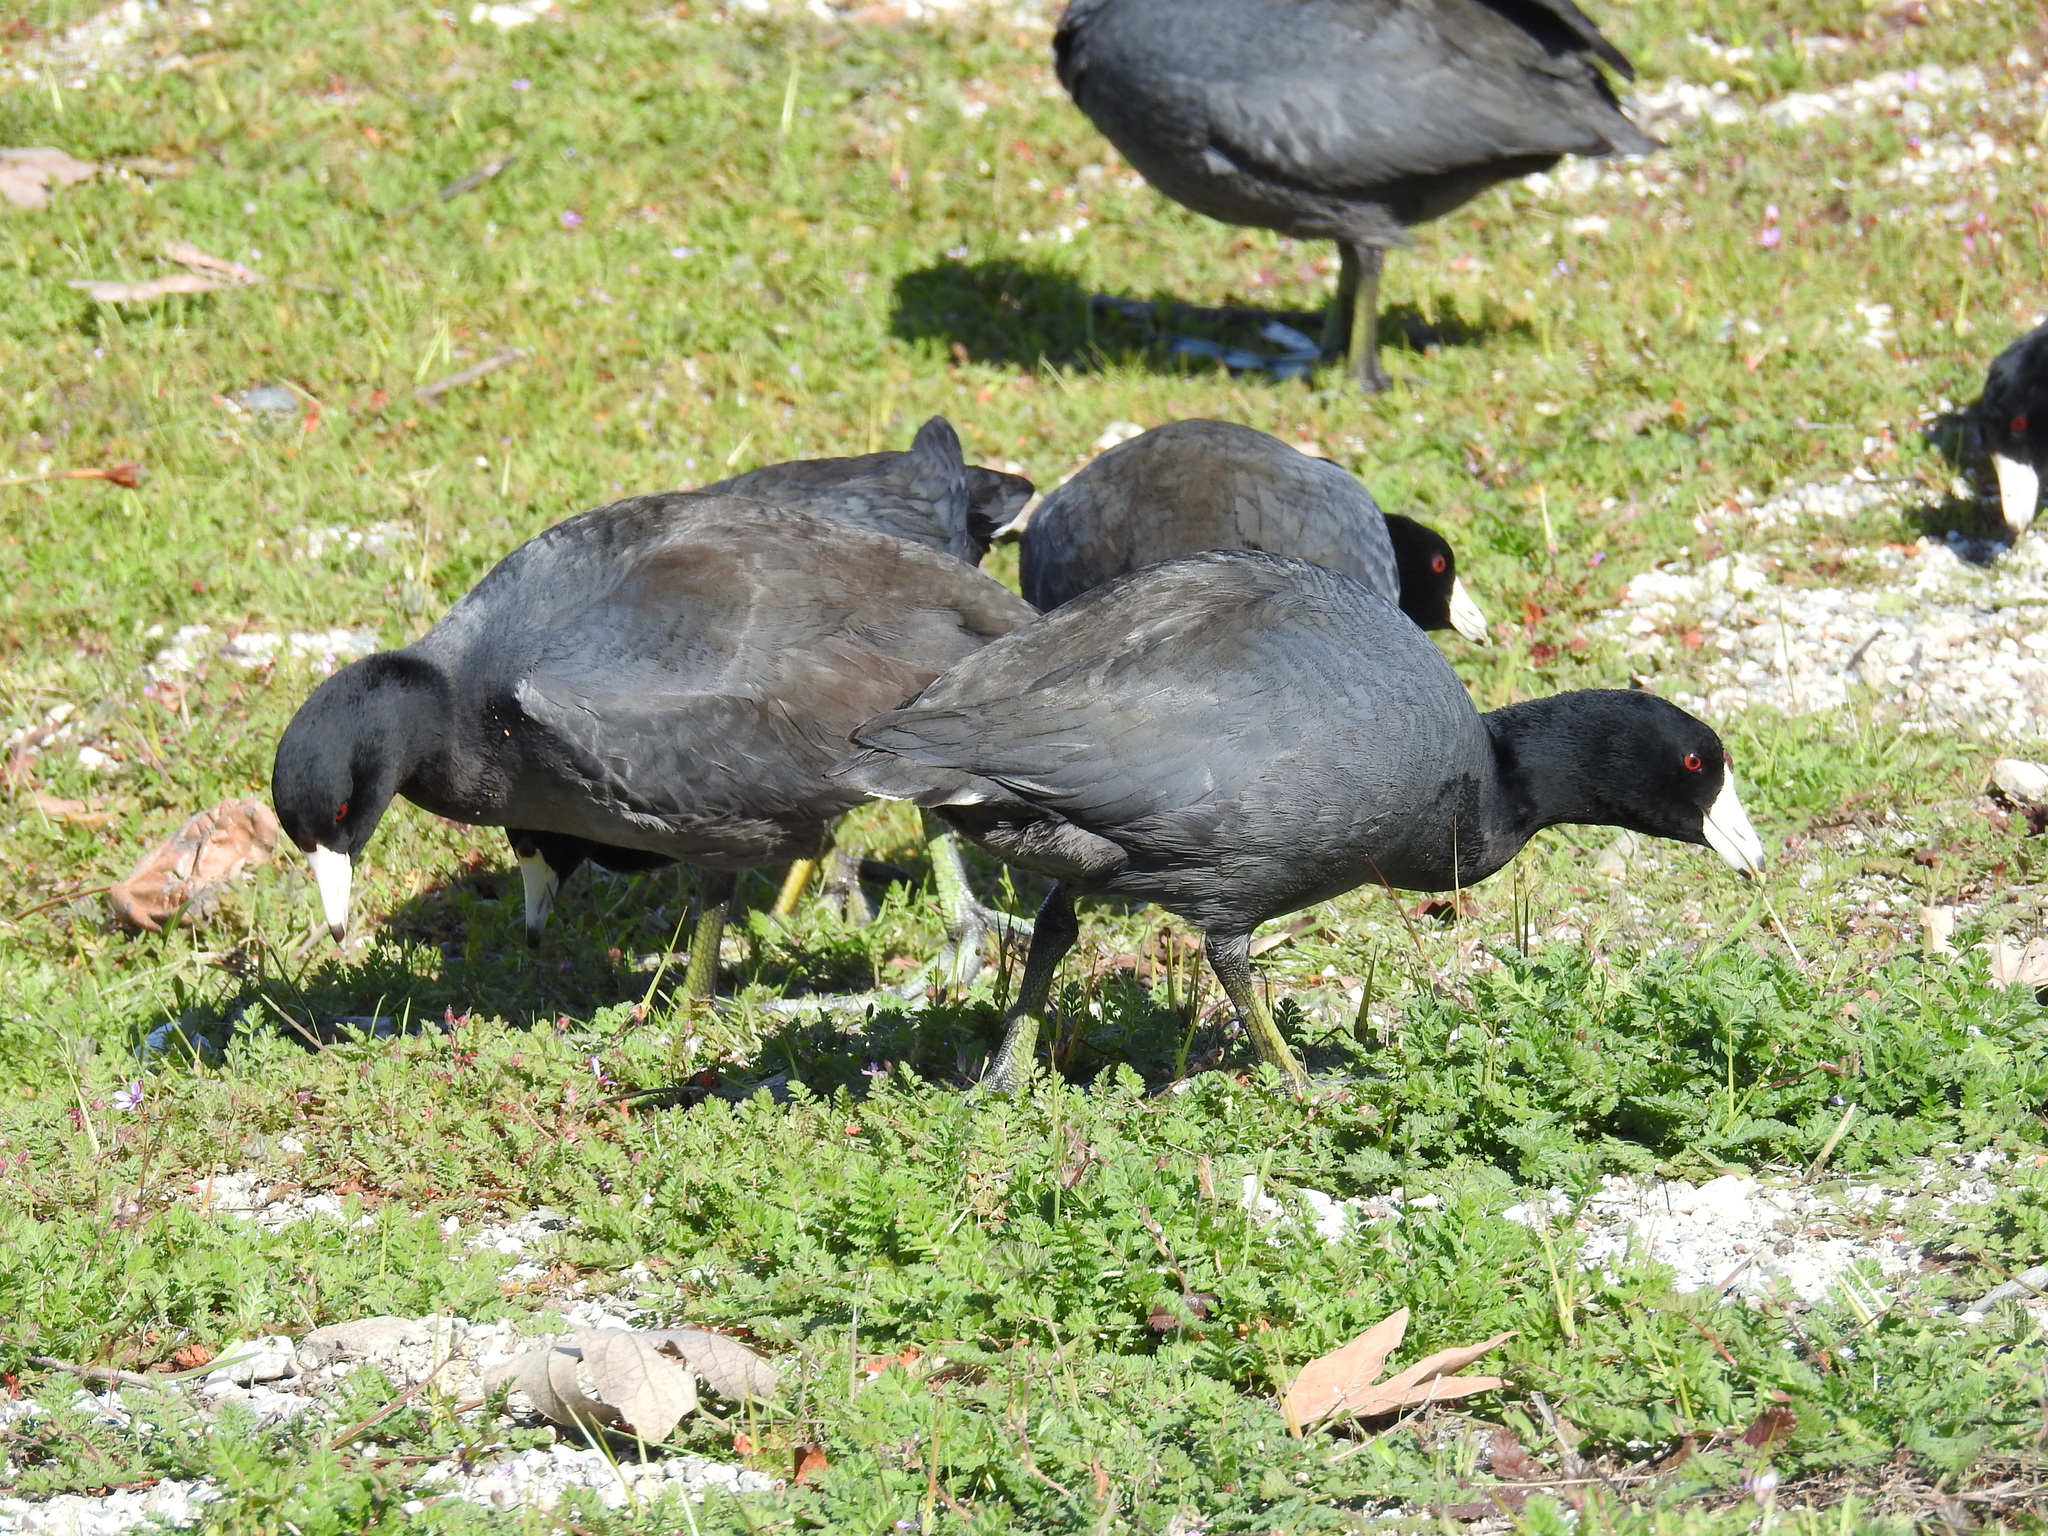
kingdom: Animalia
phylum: Chordata
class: Aves
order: Gruiformes
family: Rallidae
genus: Fulica
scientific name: Fulica americana
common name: American coot
